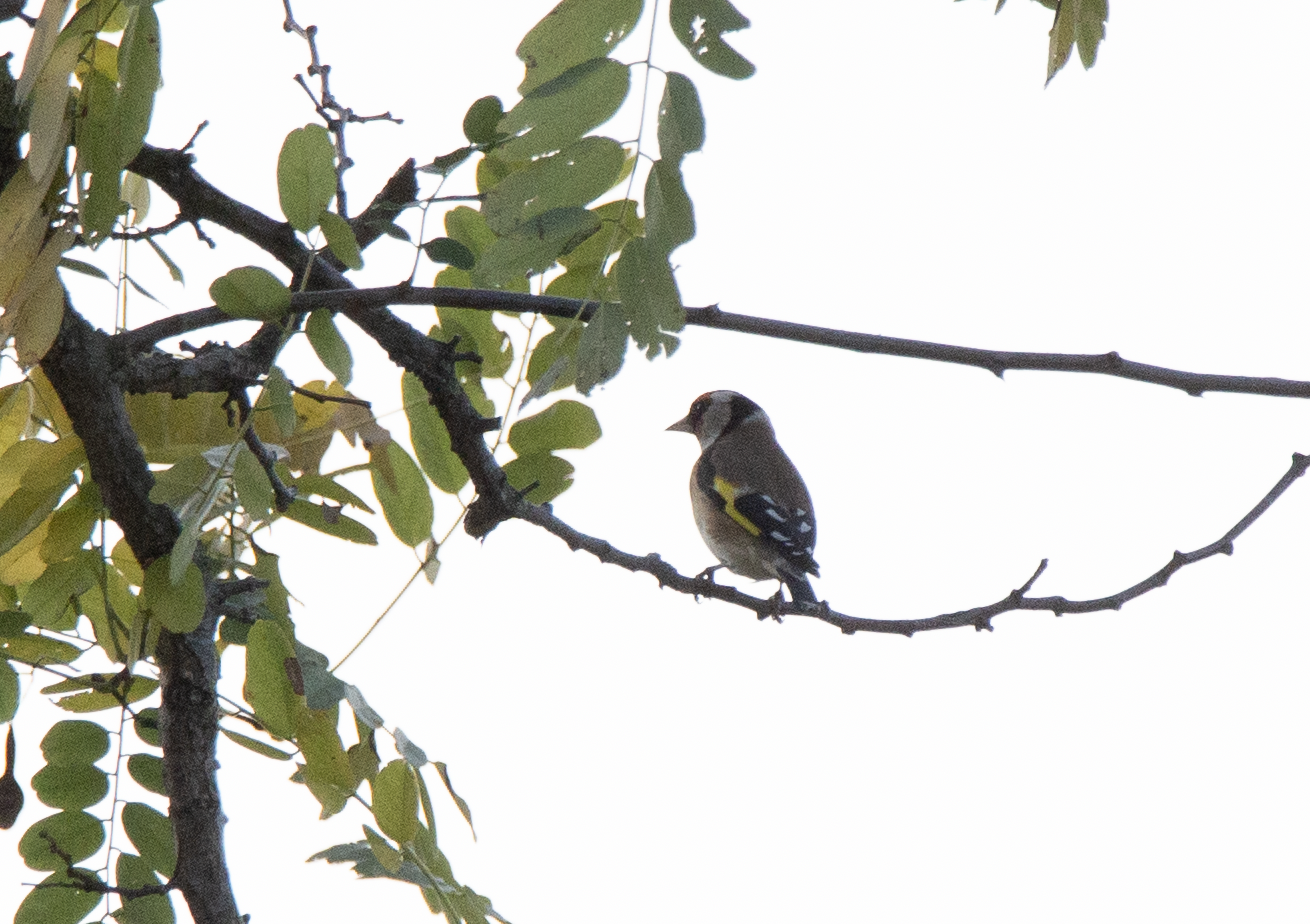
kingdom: Animalia
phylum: Chordata
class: Aves
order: Passeriformes
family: Fringillidae
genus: Carduelis
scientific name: Carduelis carduelis
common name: European goldfinch
